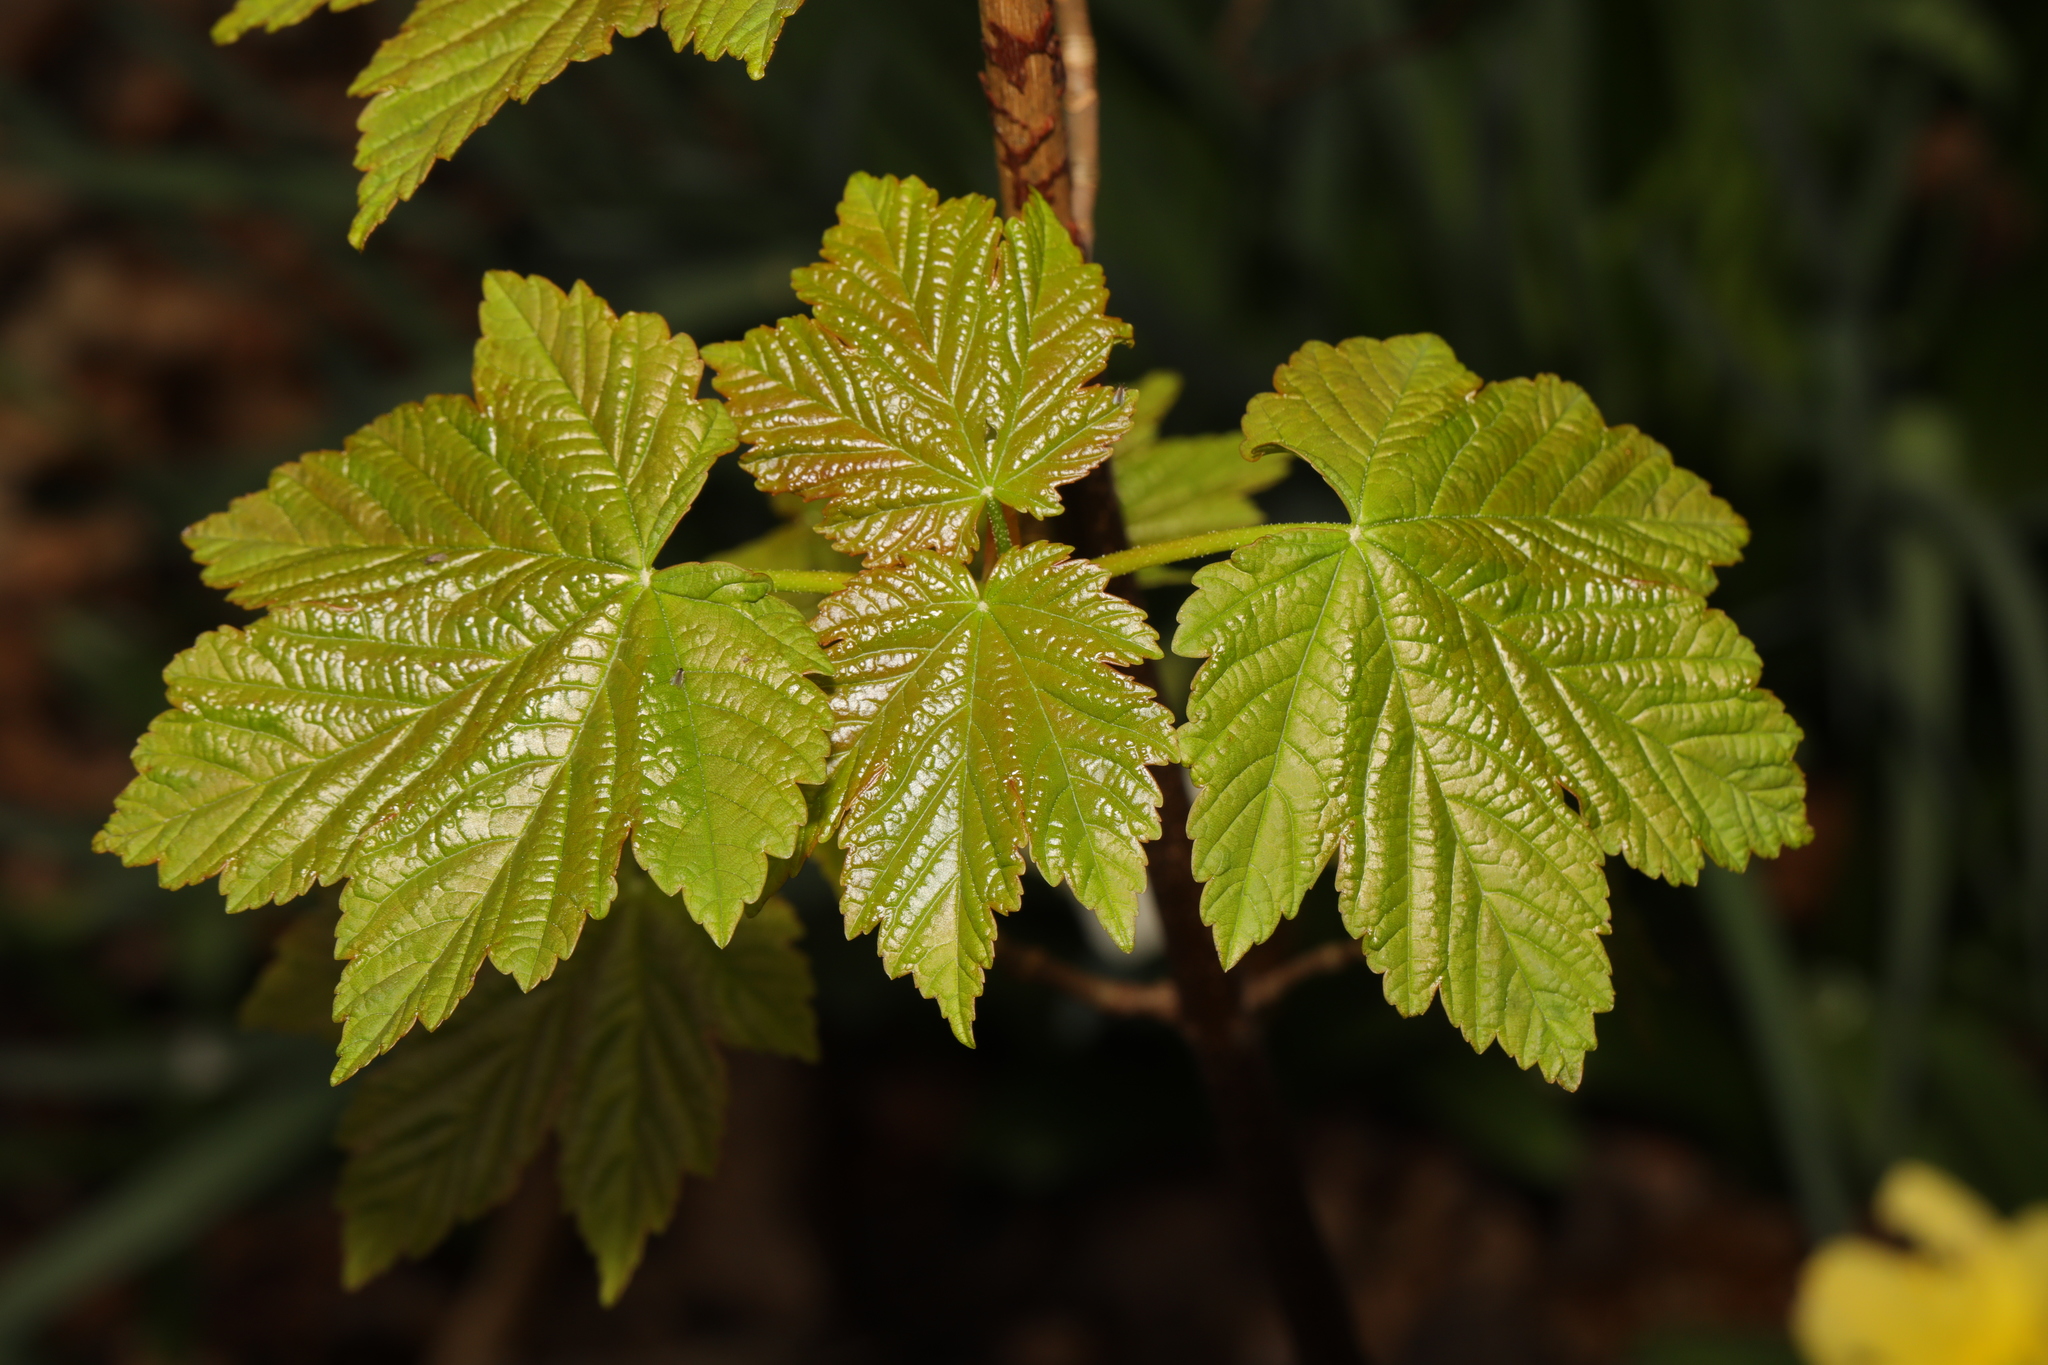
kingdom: Plantae
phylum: Tracheophyta
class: Magnoliopsida
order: Sapindales
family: Sapindaceae
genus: Acer
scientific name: Acer pseudoplatanus
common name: Sycamore
